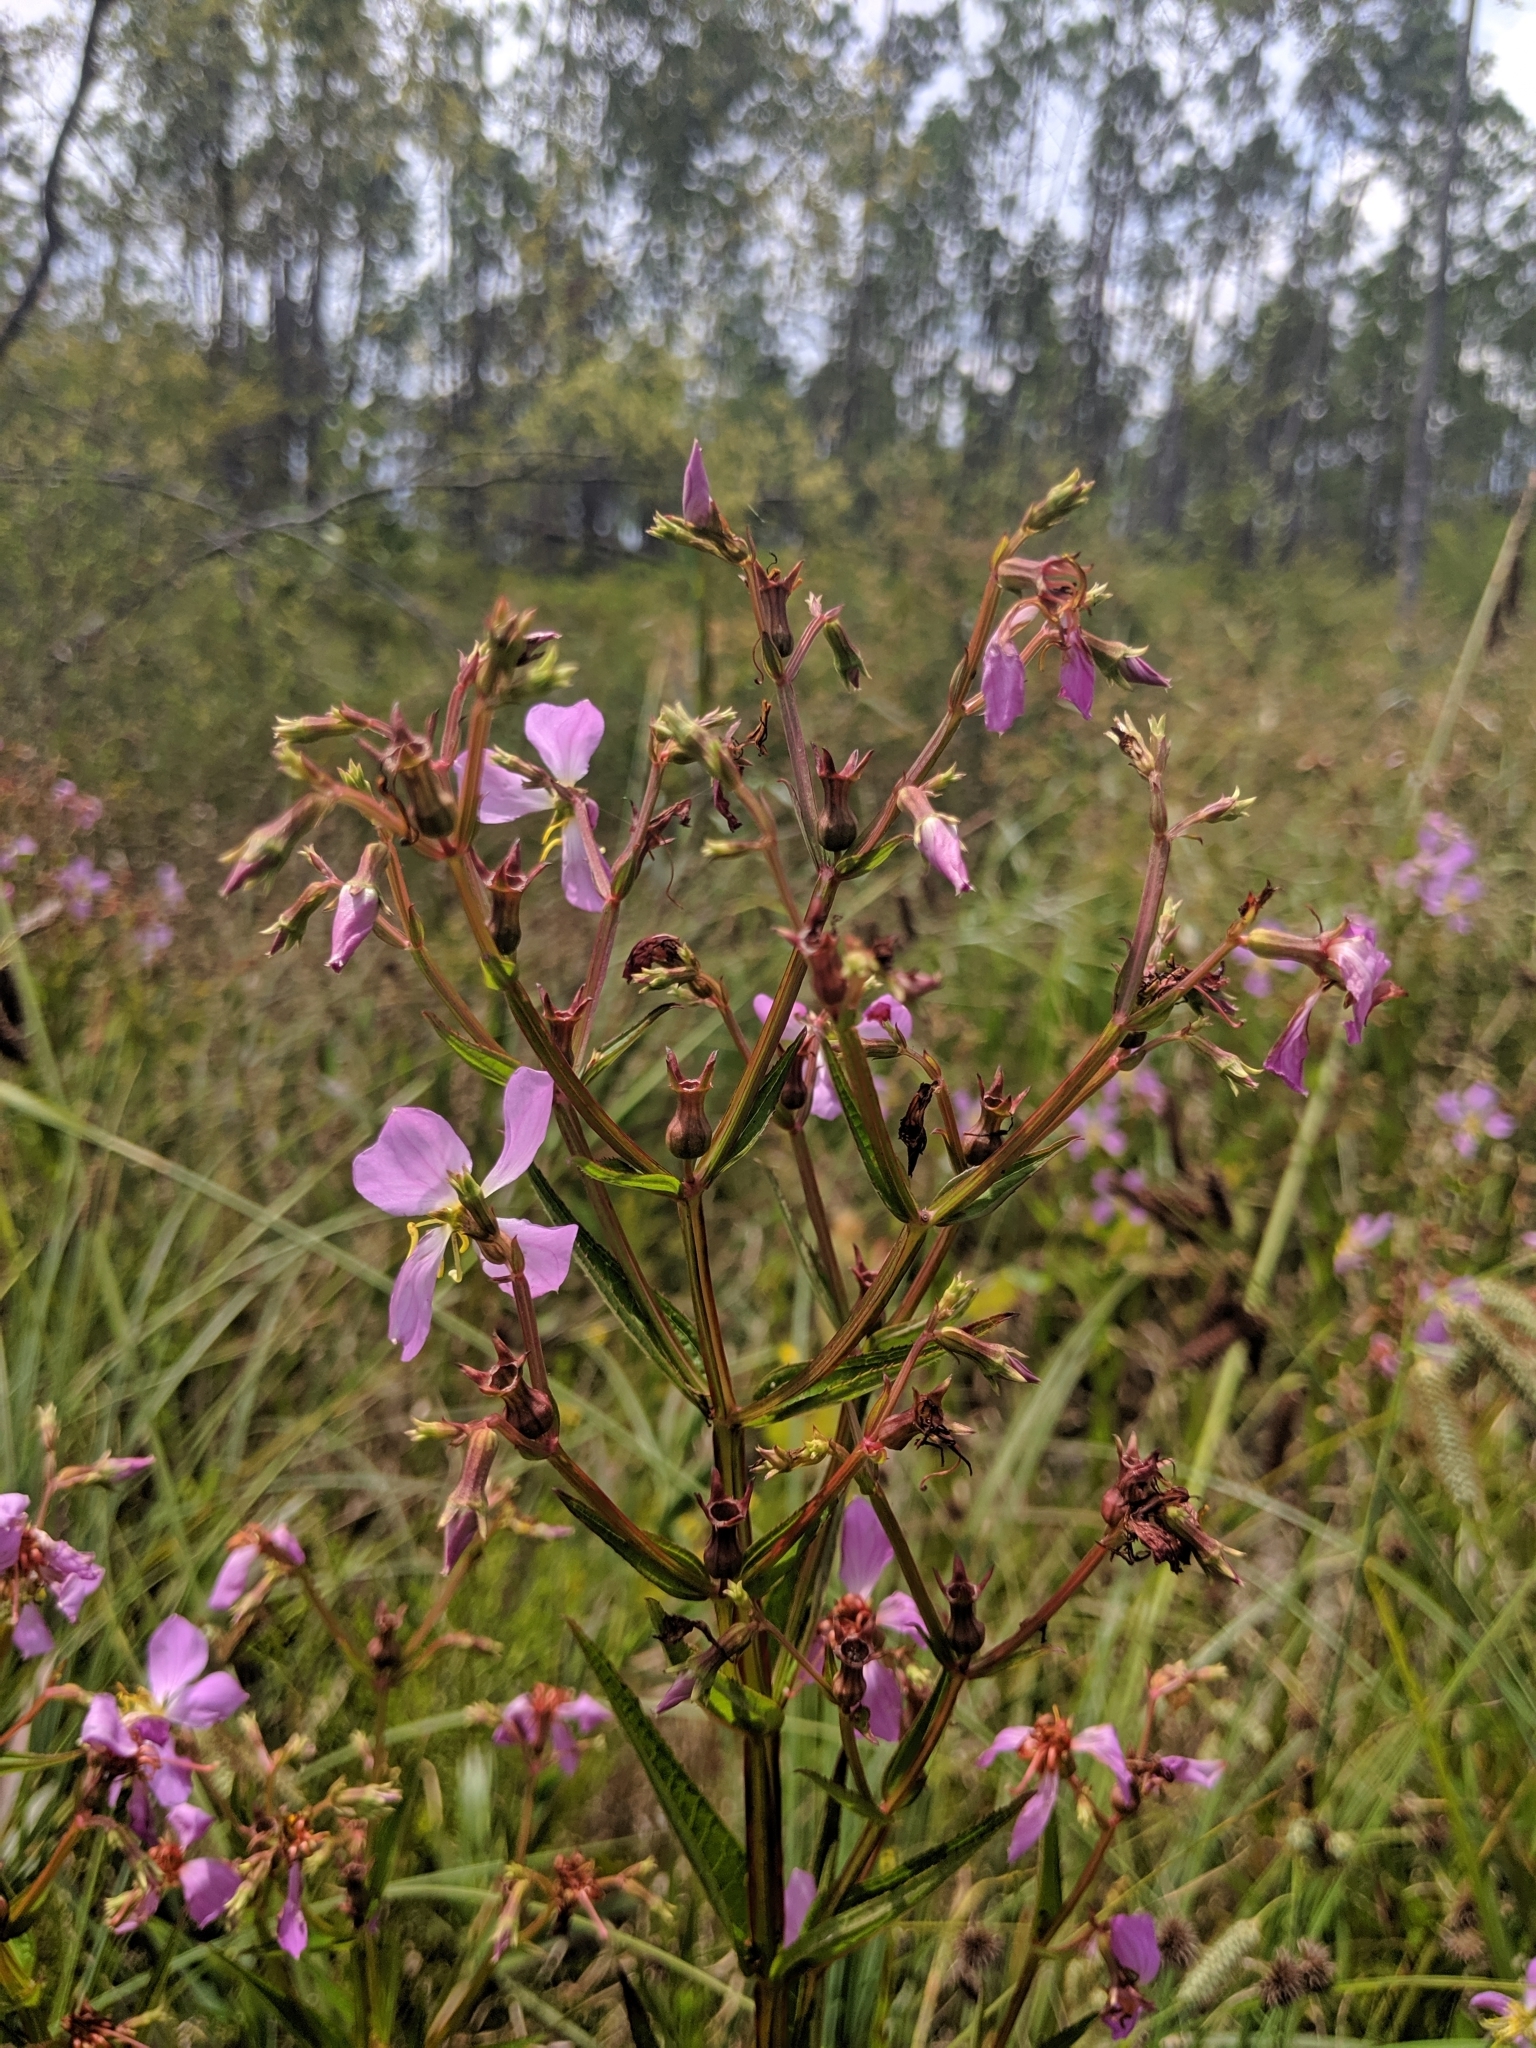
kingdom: Plantae
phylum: Tracheophyta
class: Magnoliopsida
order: Myrtales
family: Melastomataceae
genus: Rhexia
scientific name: Rhexia virginica
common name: Common meadow beauty
